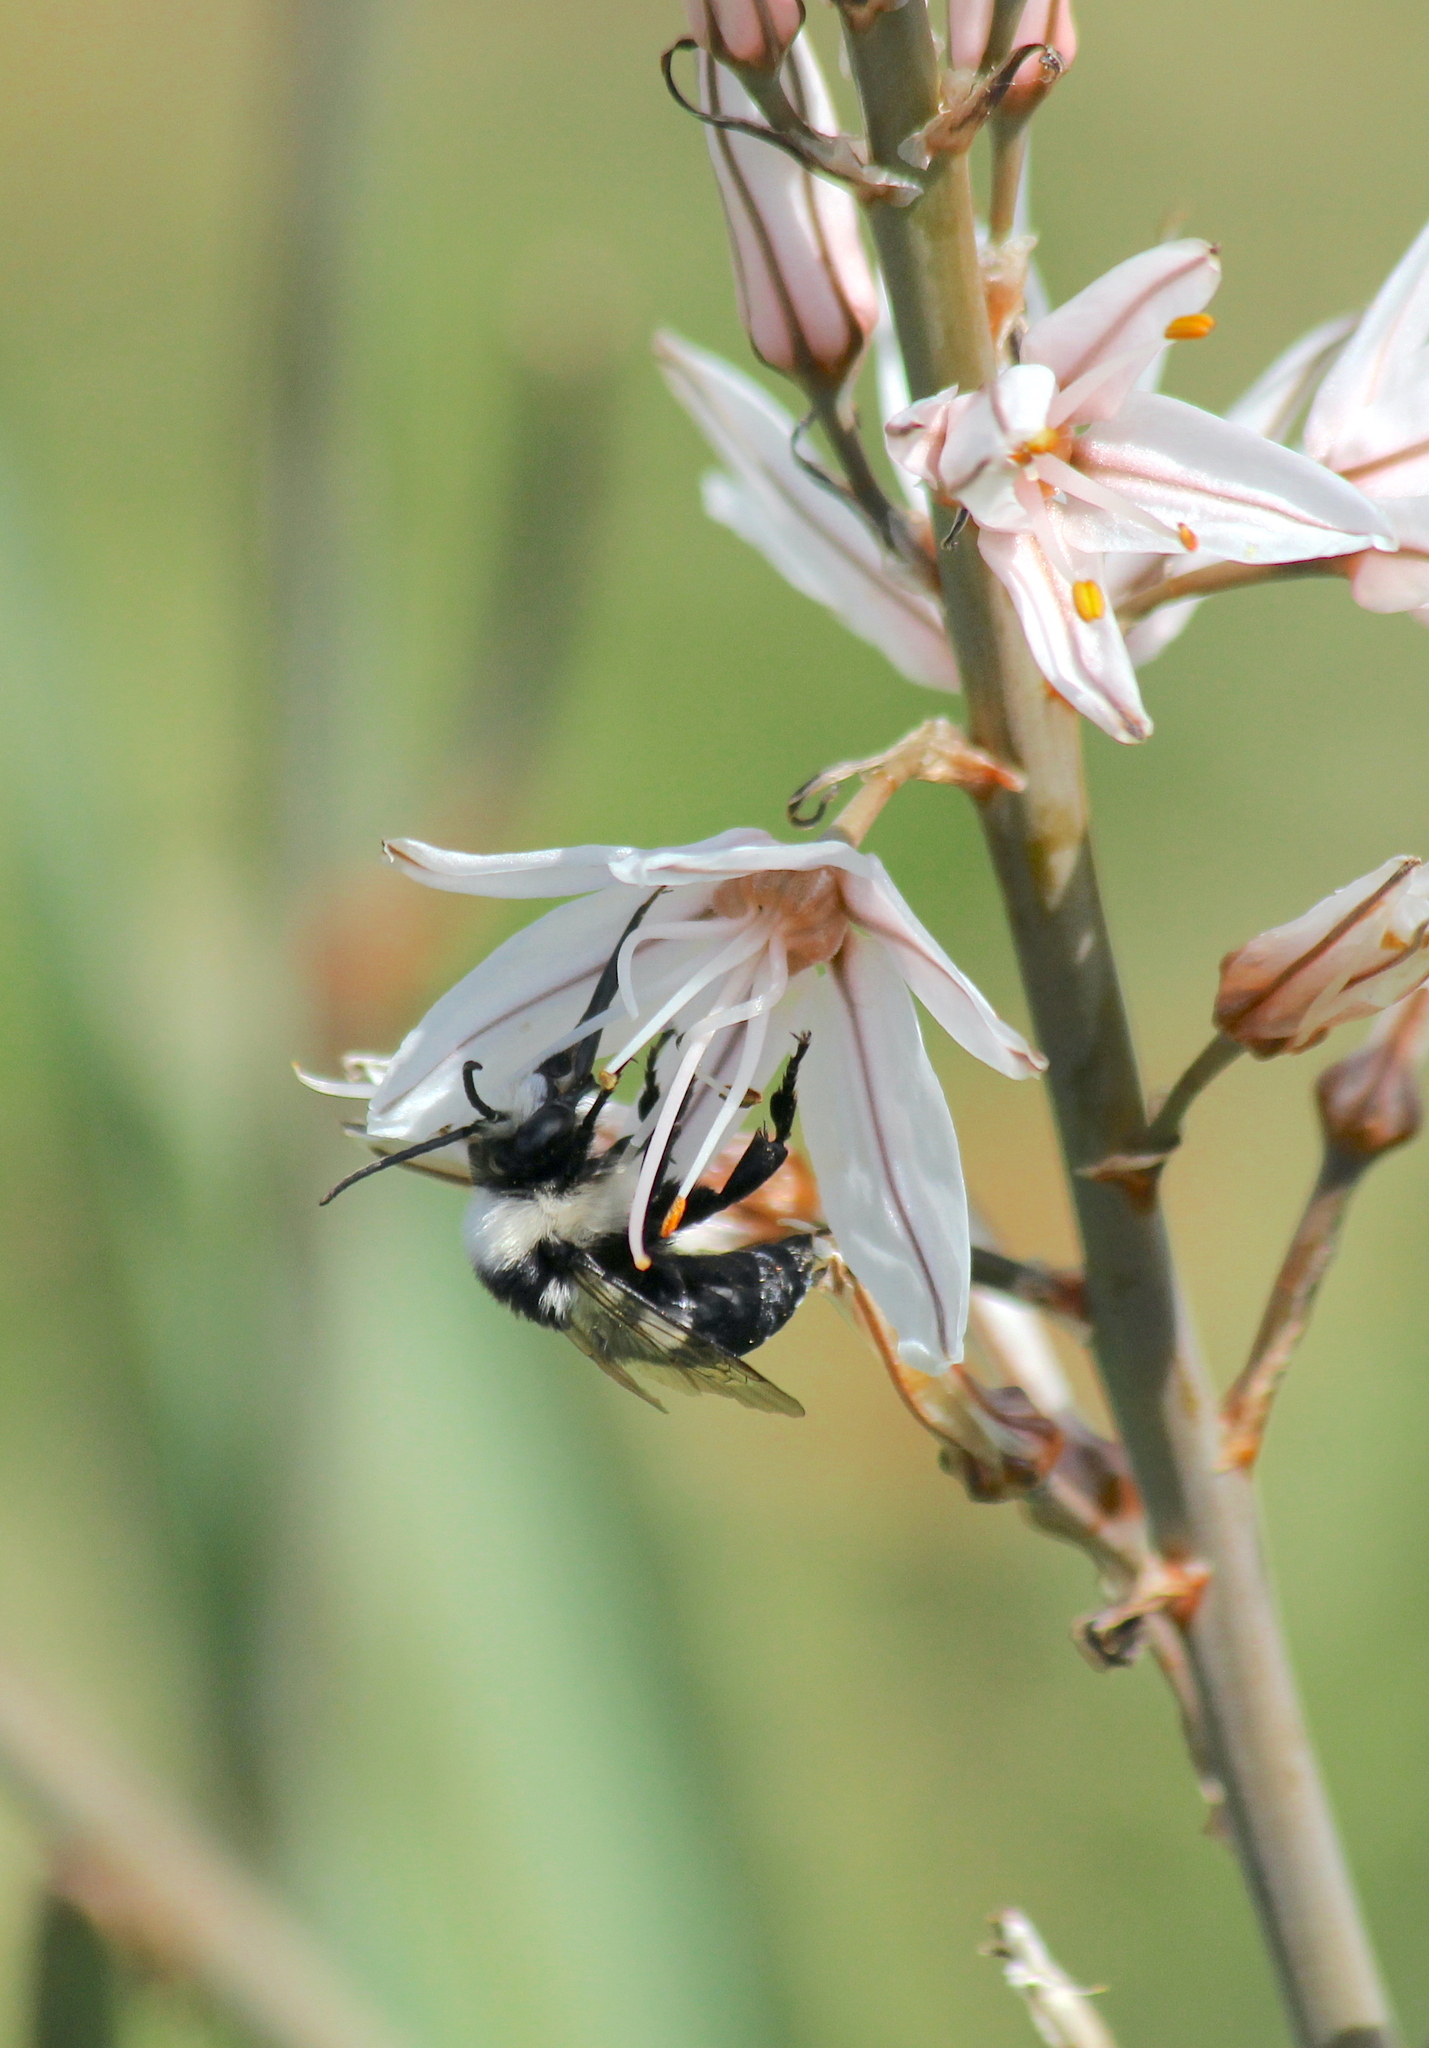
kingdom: Animalia
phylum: Arthropoda
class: Insecta
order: Hymenoptera
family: Apidae
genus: Melecta
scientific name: Melecta obscura
